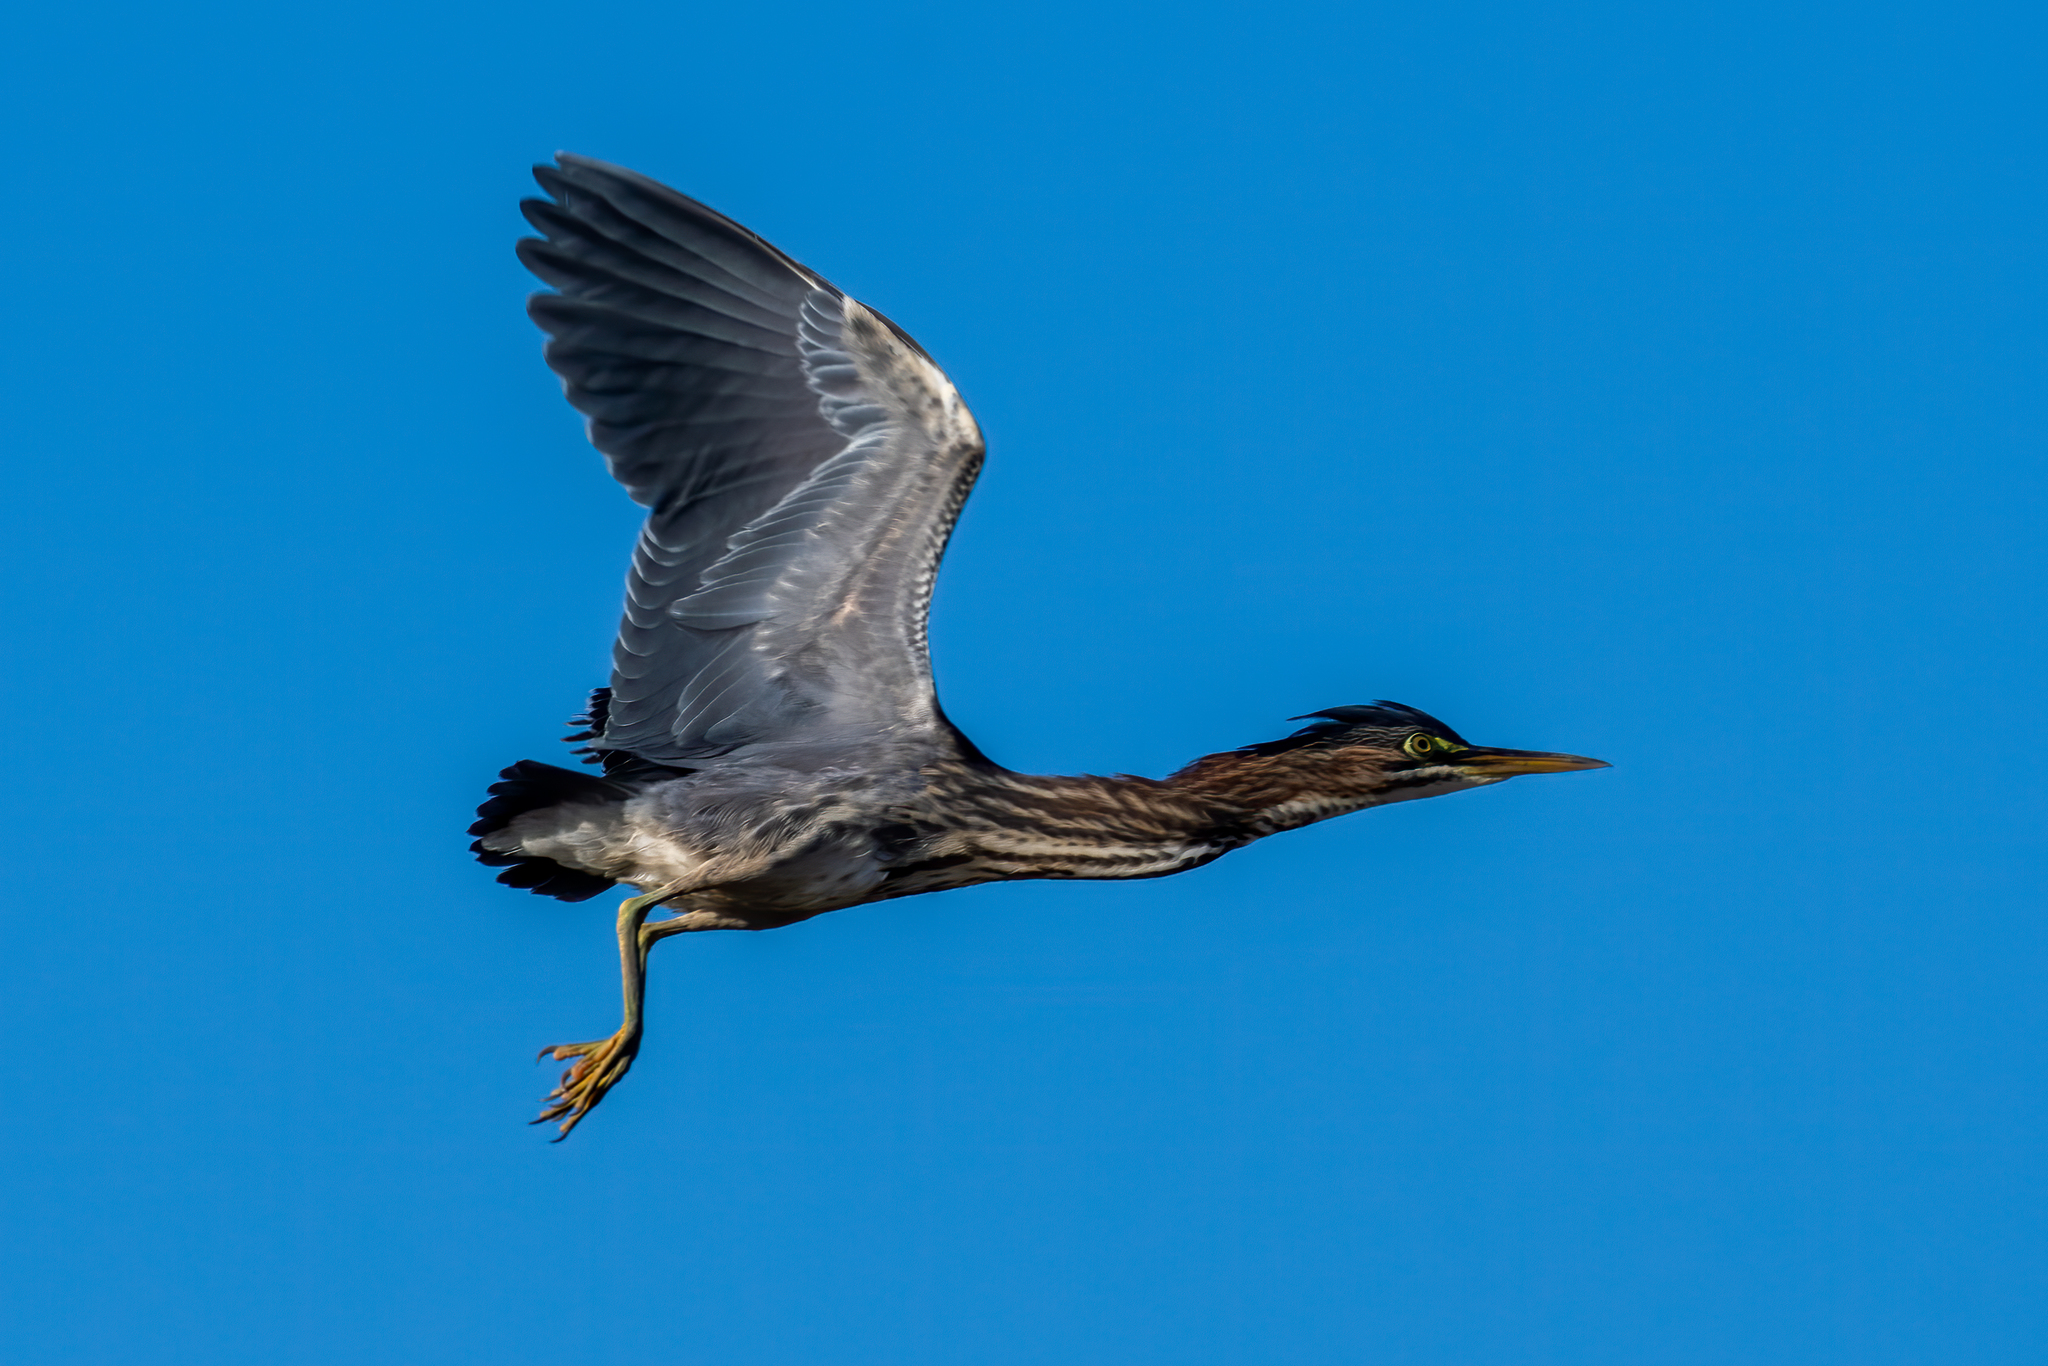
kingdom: Animalia
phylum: Chordata
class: Aves
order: Pelecaniformes
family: Ardeidae
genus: Butorides
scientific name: Butorides virescens
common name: Green heron
